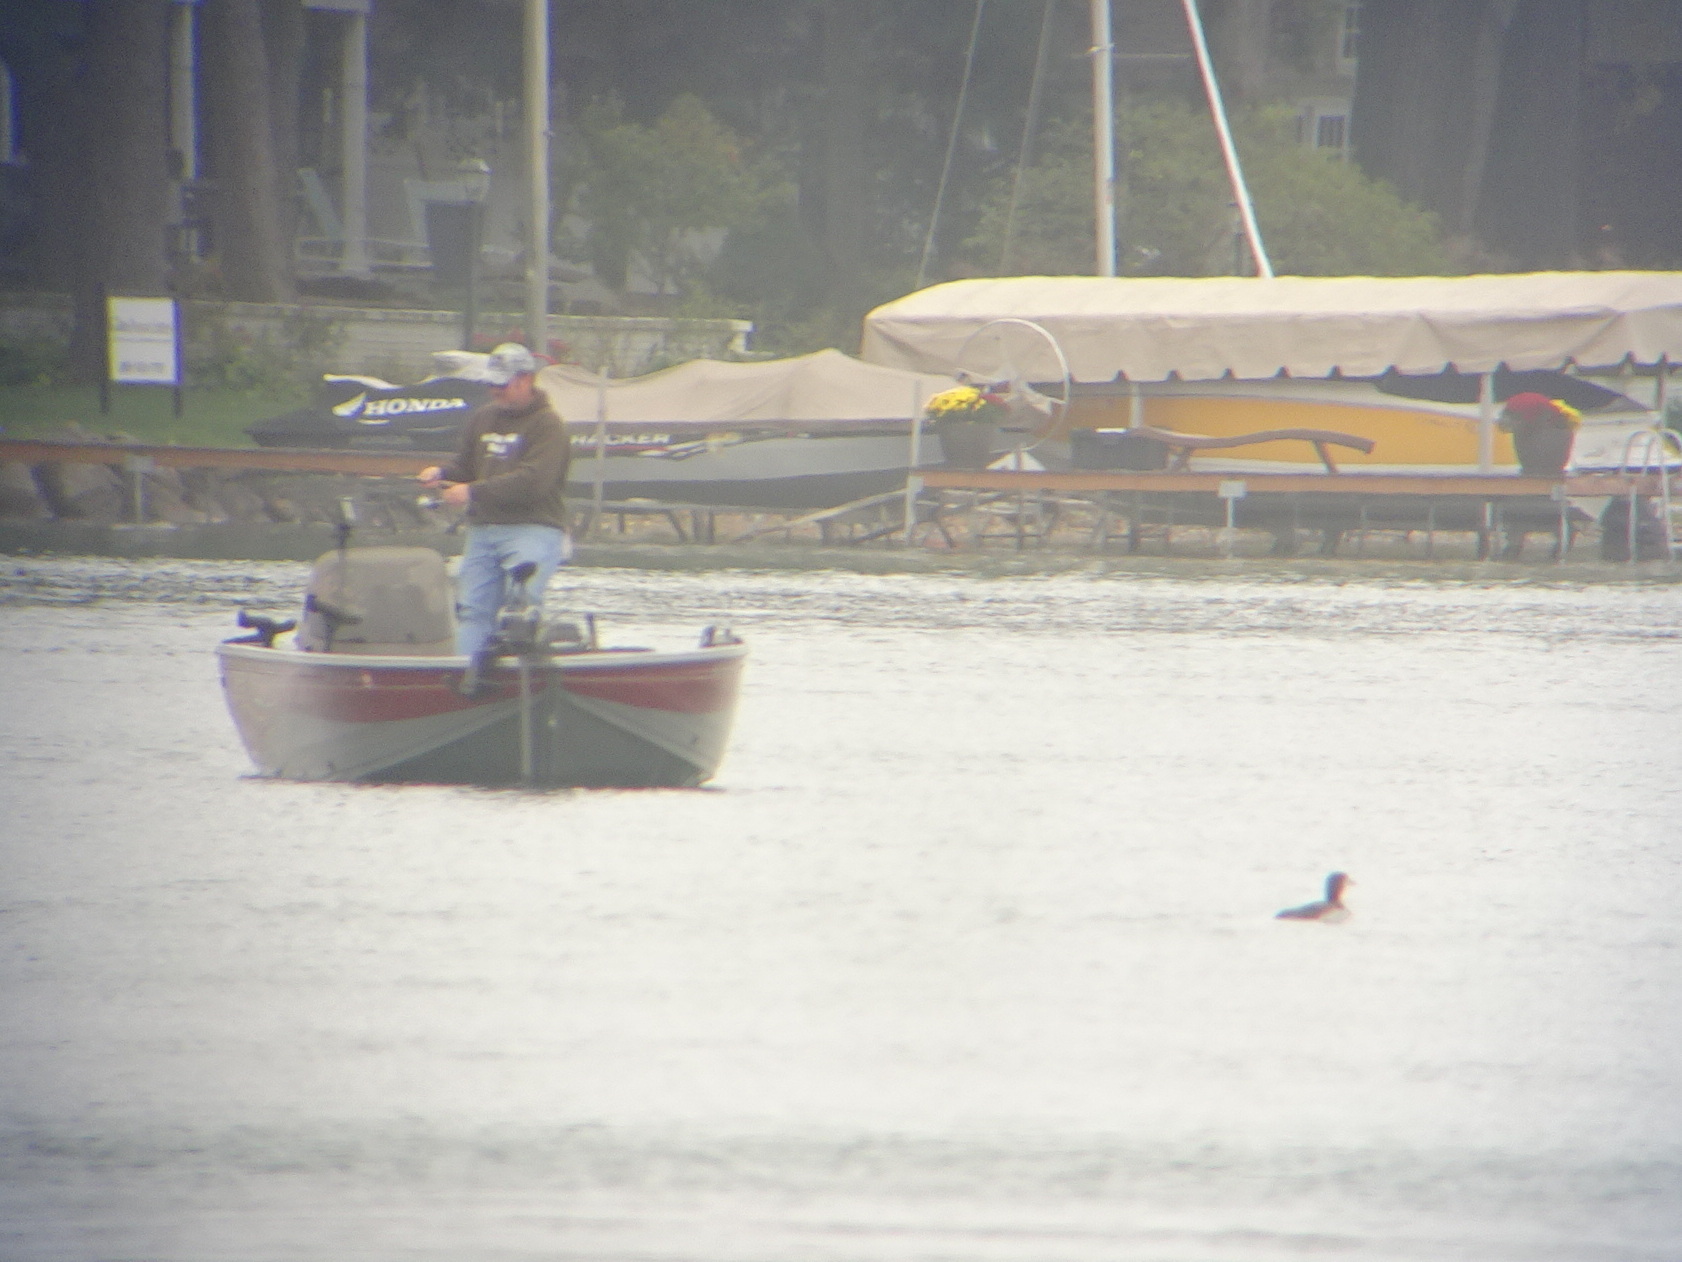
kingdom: Animalia
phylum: Chordata
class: Aves
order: Gaviiformes
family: Gaviidae
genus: Gavia
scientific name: Gavia immer
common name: Common loon
